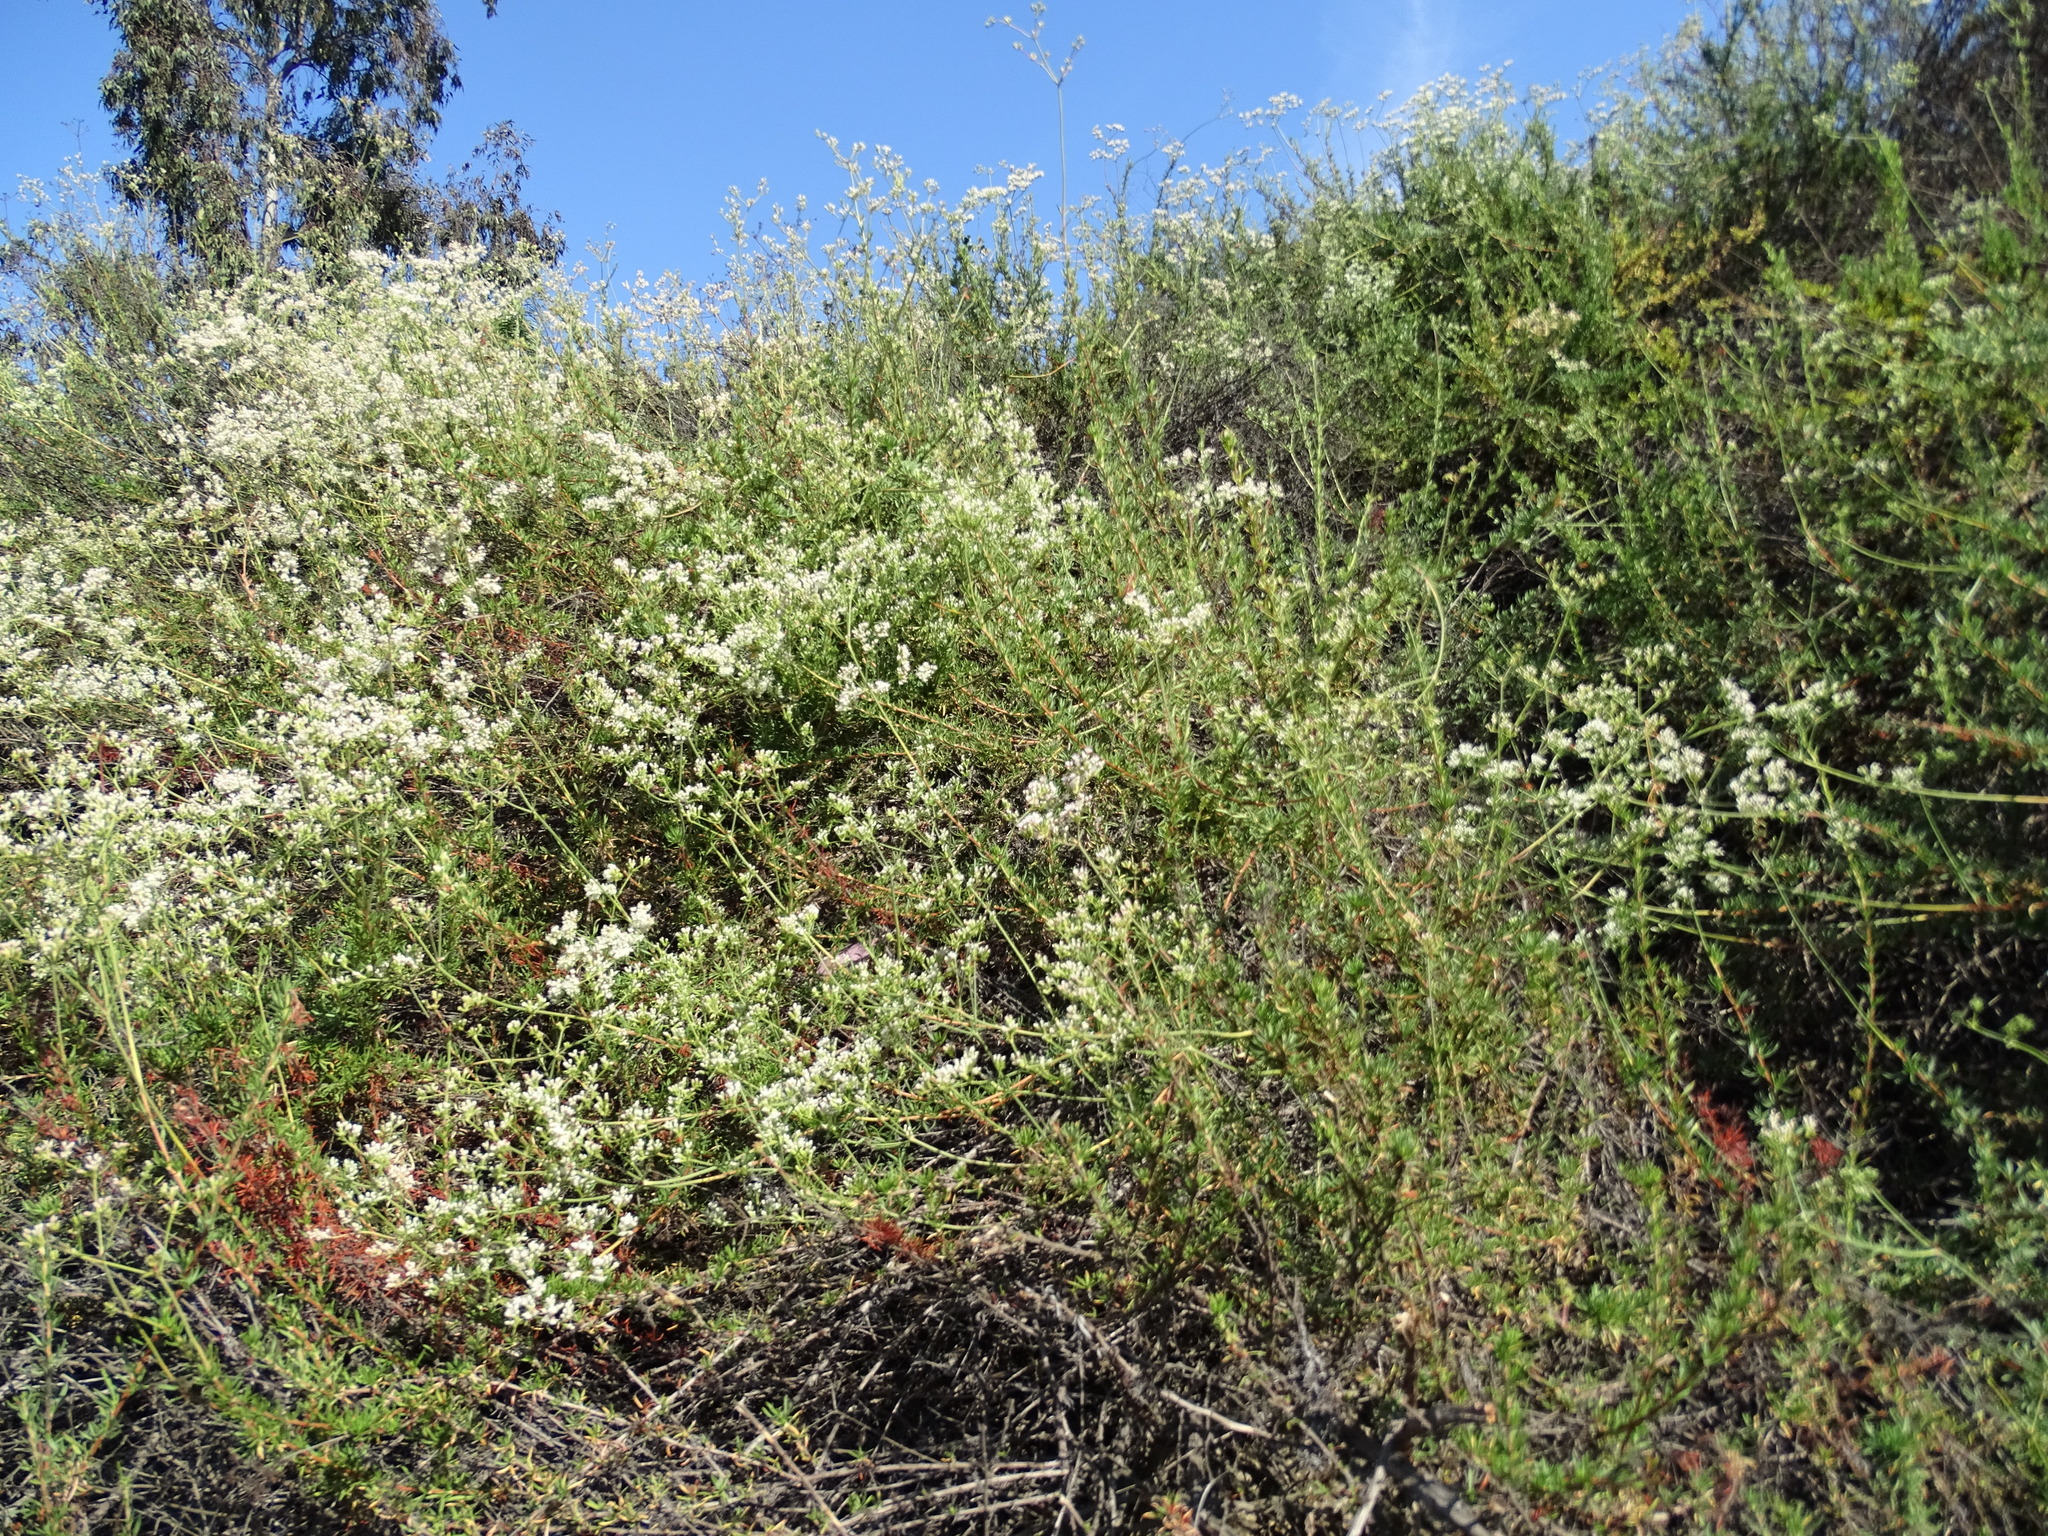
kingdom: Plantae
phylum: Tracheophyta
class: Magnoliopsida
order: Caryophyllales
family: Polygonaceae
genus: Eriogonum
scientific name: Eriogonum fasciculatum
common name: California wild buckwheat
